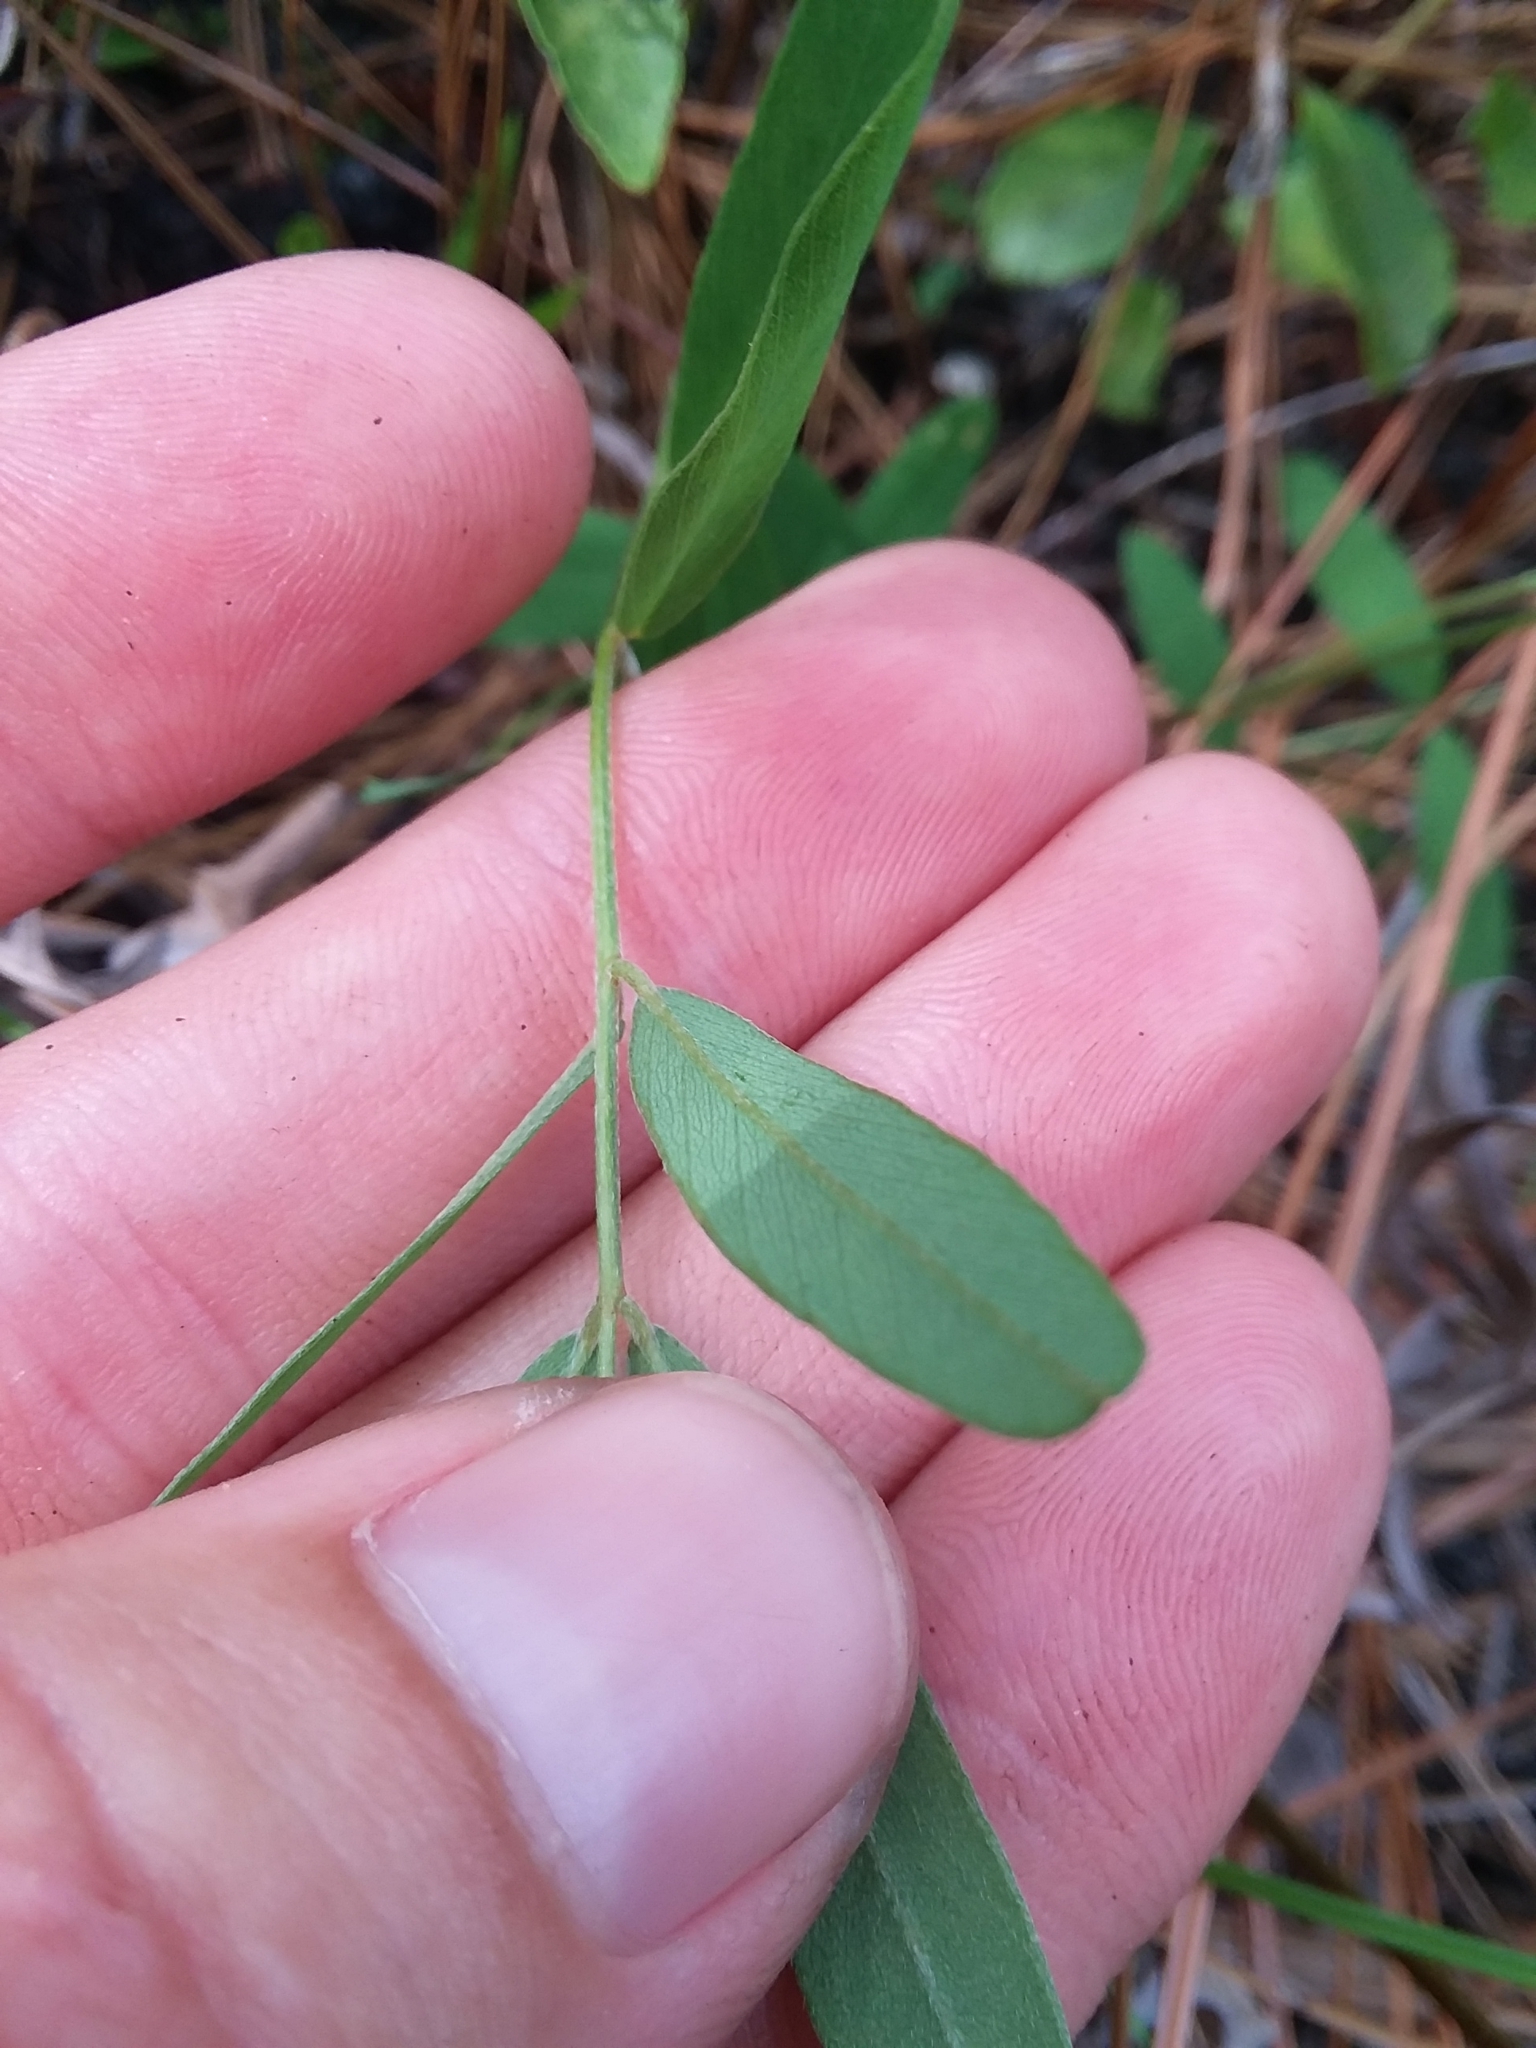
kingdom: Plantae
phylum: Tracheophyta
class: Magnoliopsida
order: Fabales
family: Fabaceae
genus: Tephrosia
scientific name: Tephrosia florida
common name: Florida hoary-pea
